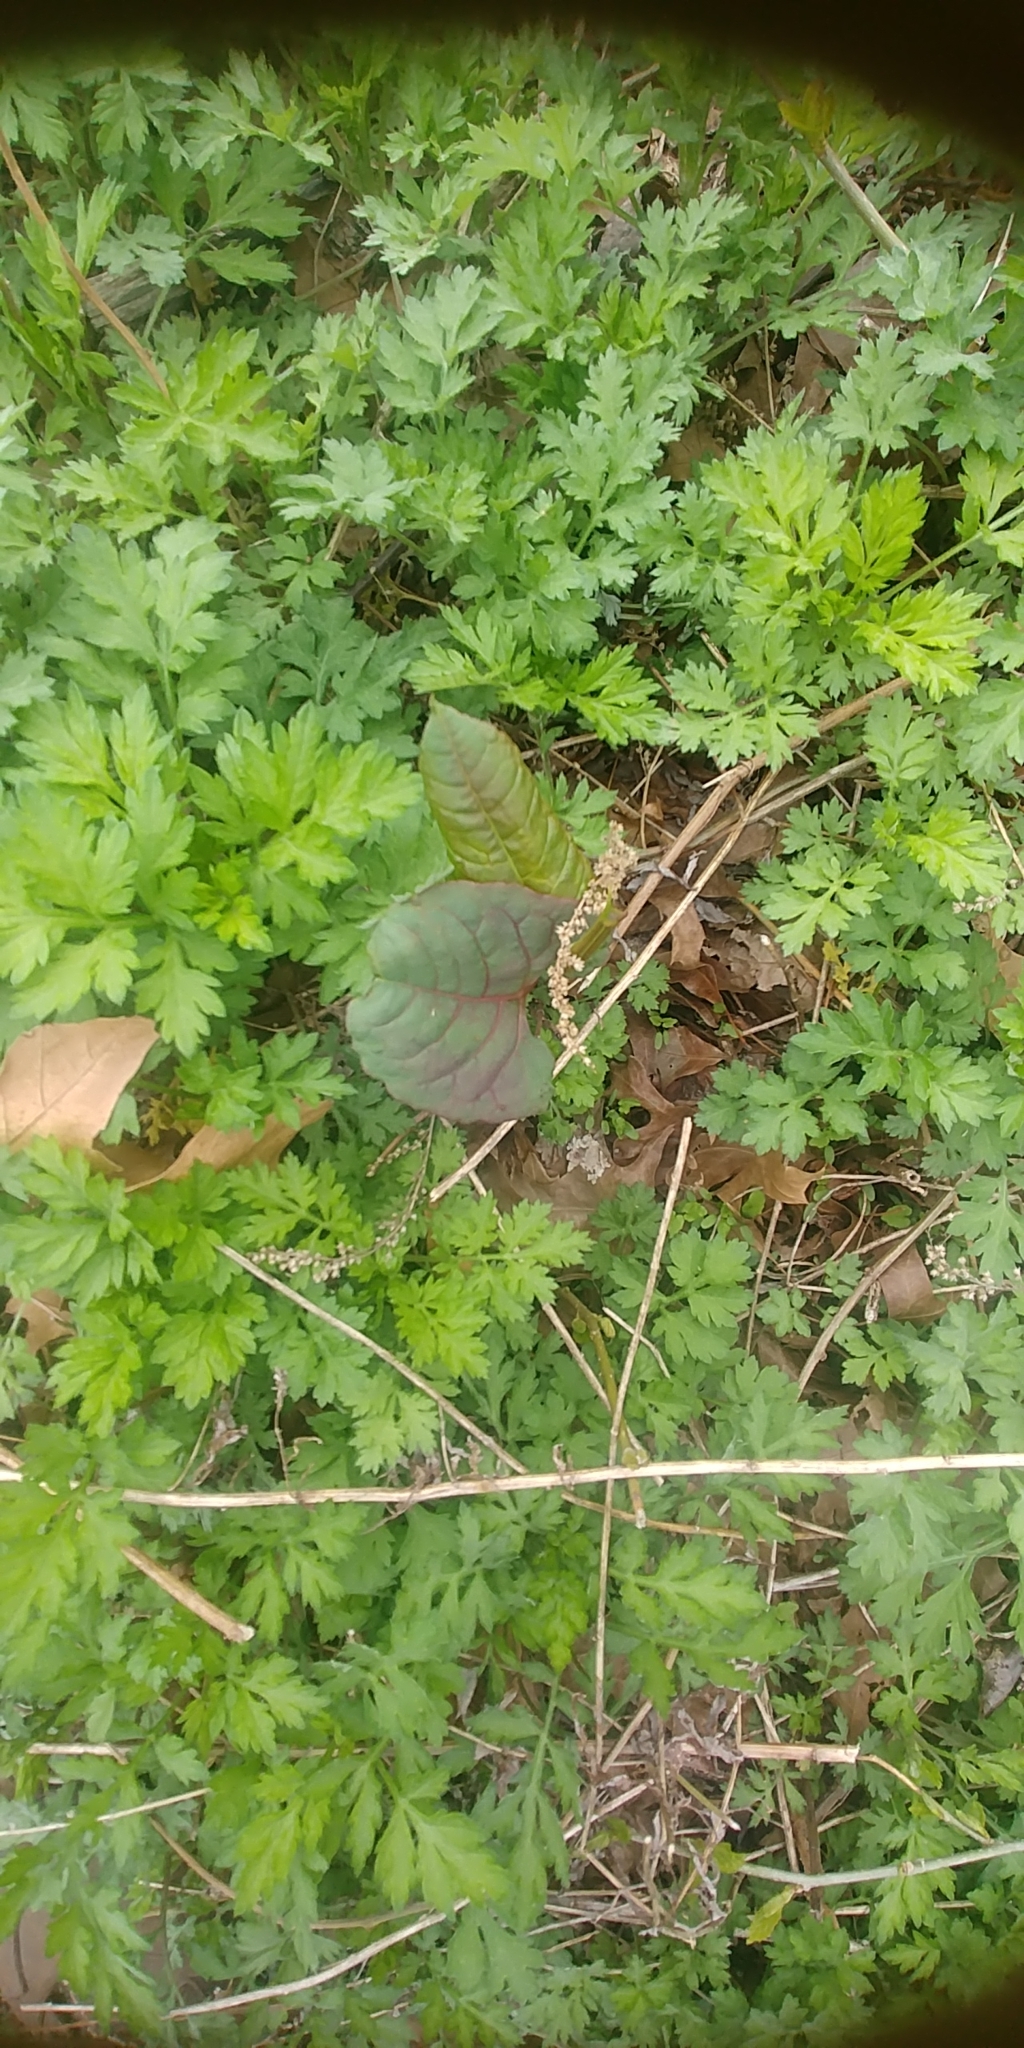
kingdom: Plantae
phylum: Tracheophyta
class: Magnoliopsida
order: Caryophyllales
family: Polygonaceae
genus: Reynoutria
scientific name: Reynoutria japonica
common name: Japanese knotweed
